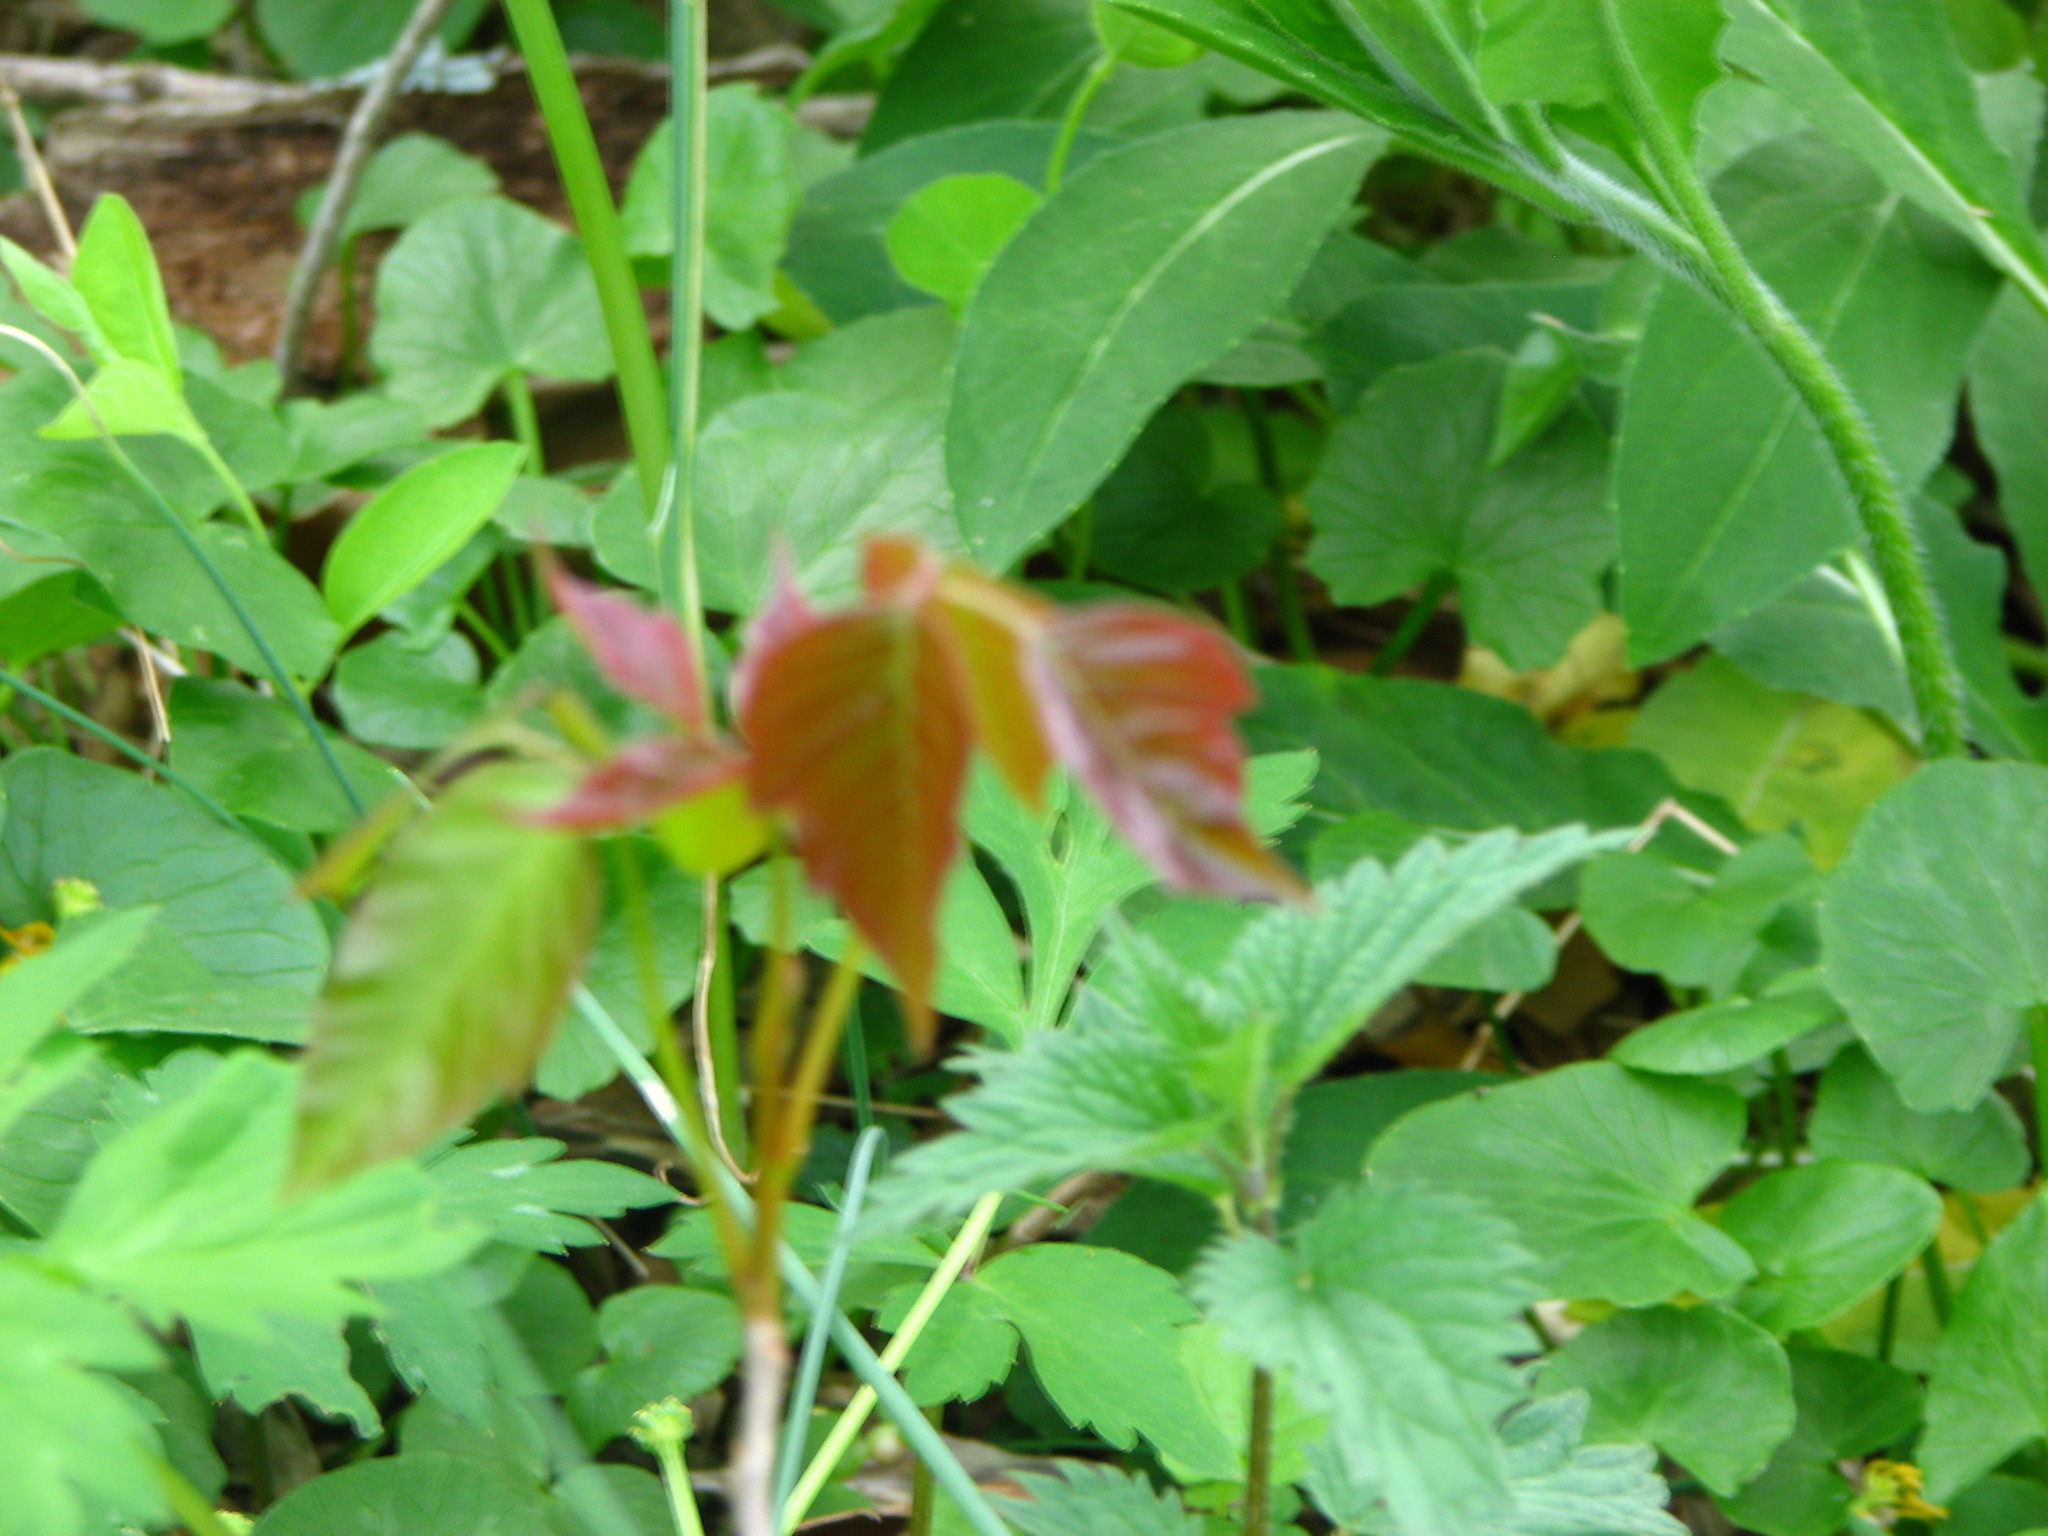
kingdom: Plantae
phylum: Tracheophyta
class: Magnoliopsida
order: Sapindales
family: Anacardiaceae
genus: Toxicodendron
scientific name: Toxicodendron radicans
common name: Poison ivy
